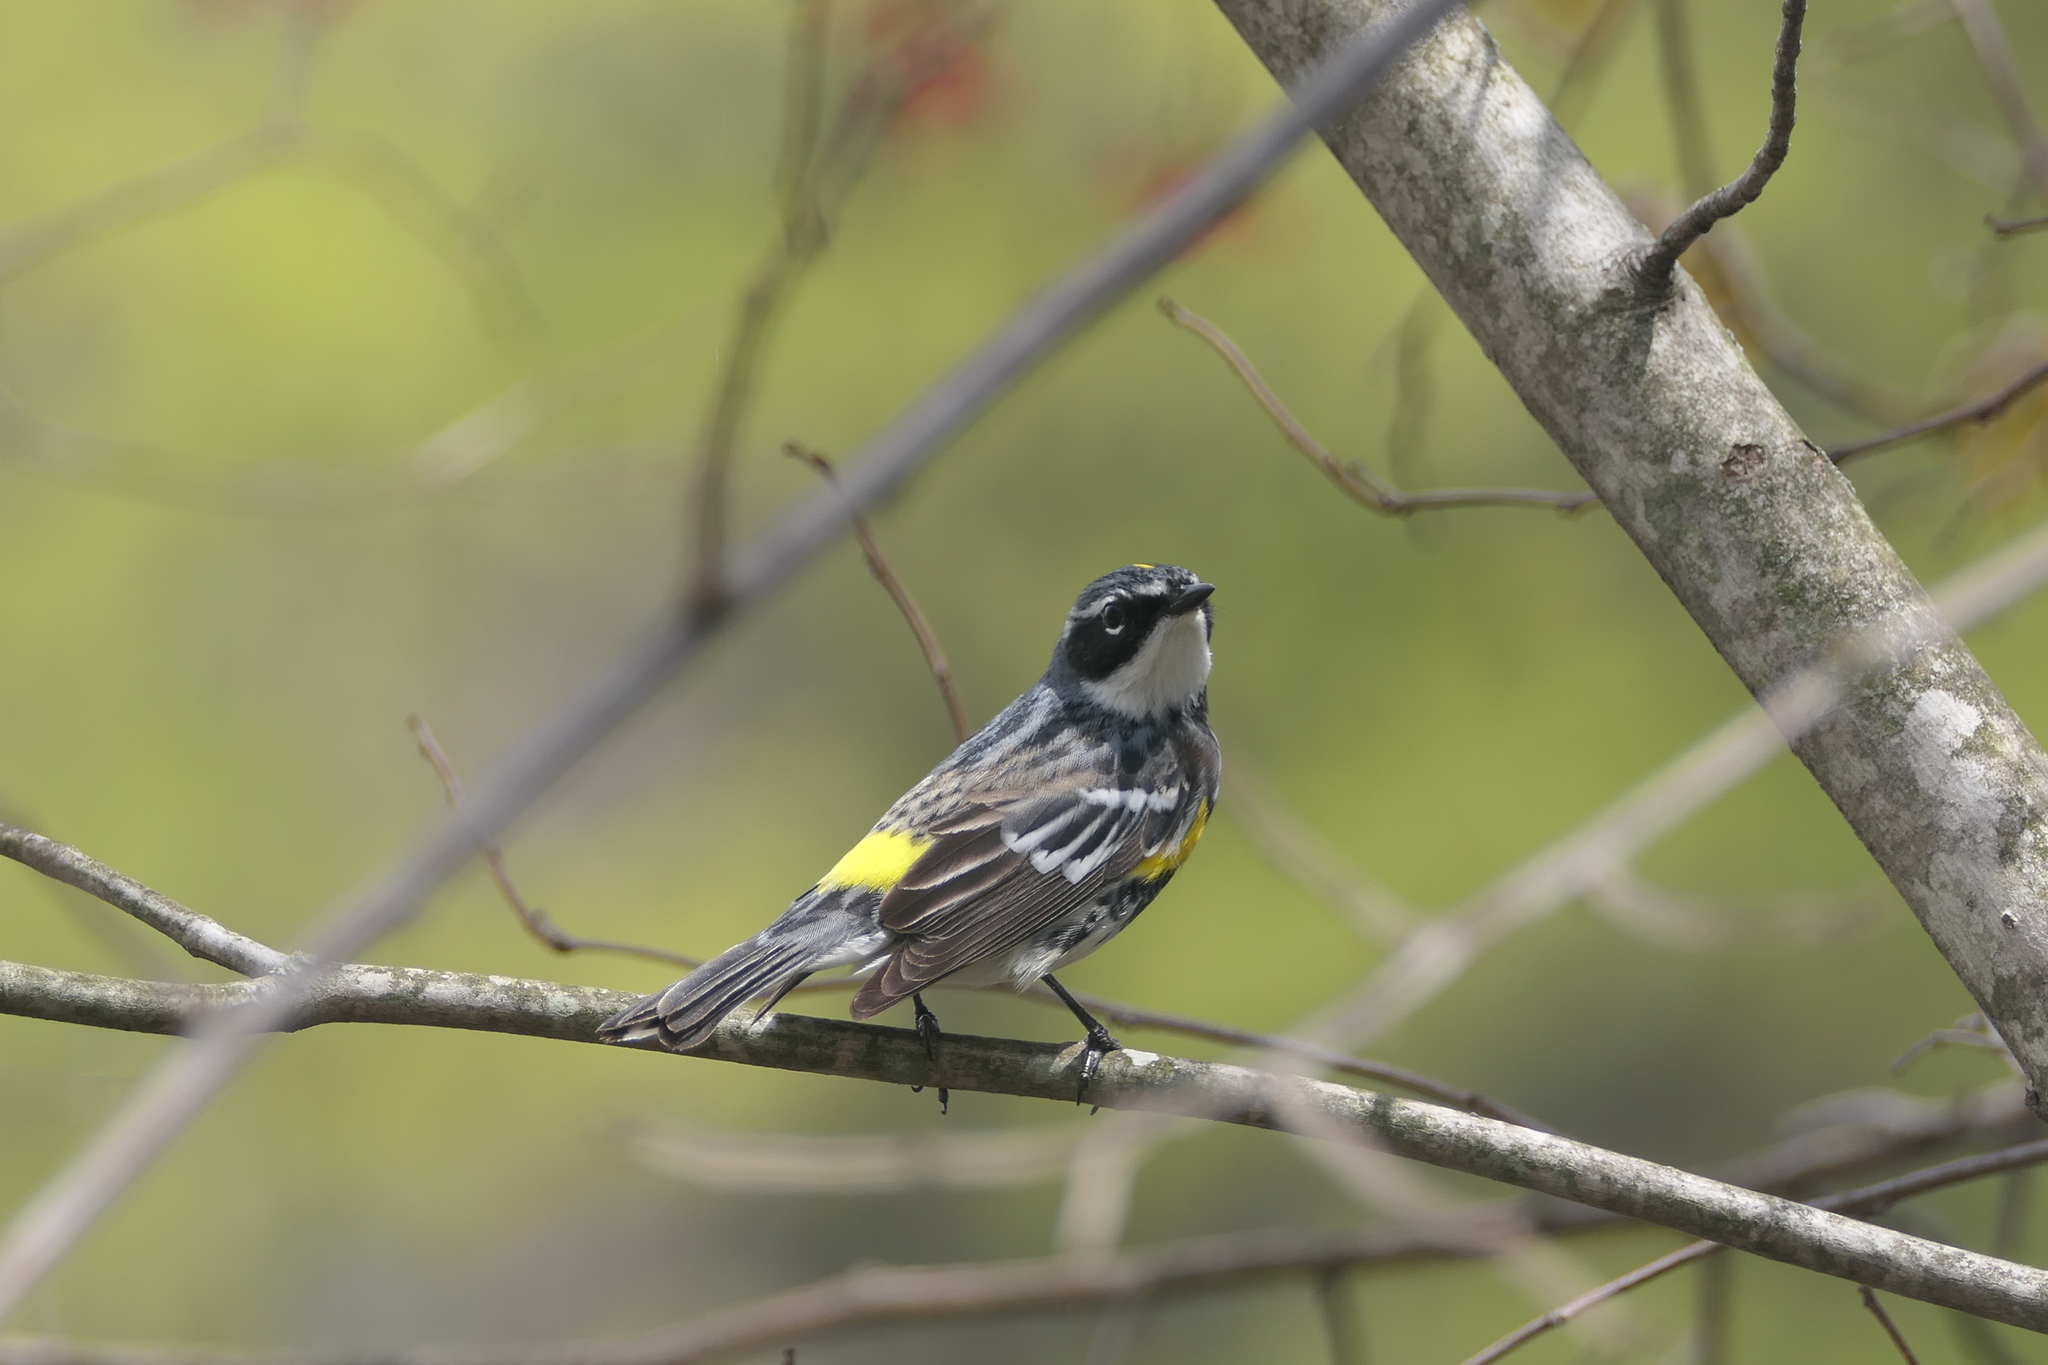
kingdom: Animalia
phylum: Chordata
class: Aves
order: Passeriformes
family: Parulidae
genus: Setophaga
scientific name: Setophaga coronata
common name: Myrtle warbler
